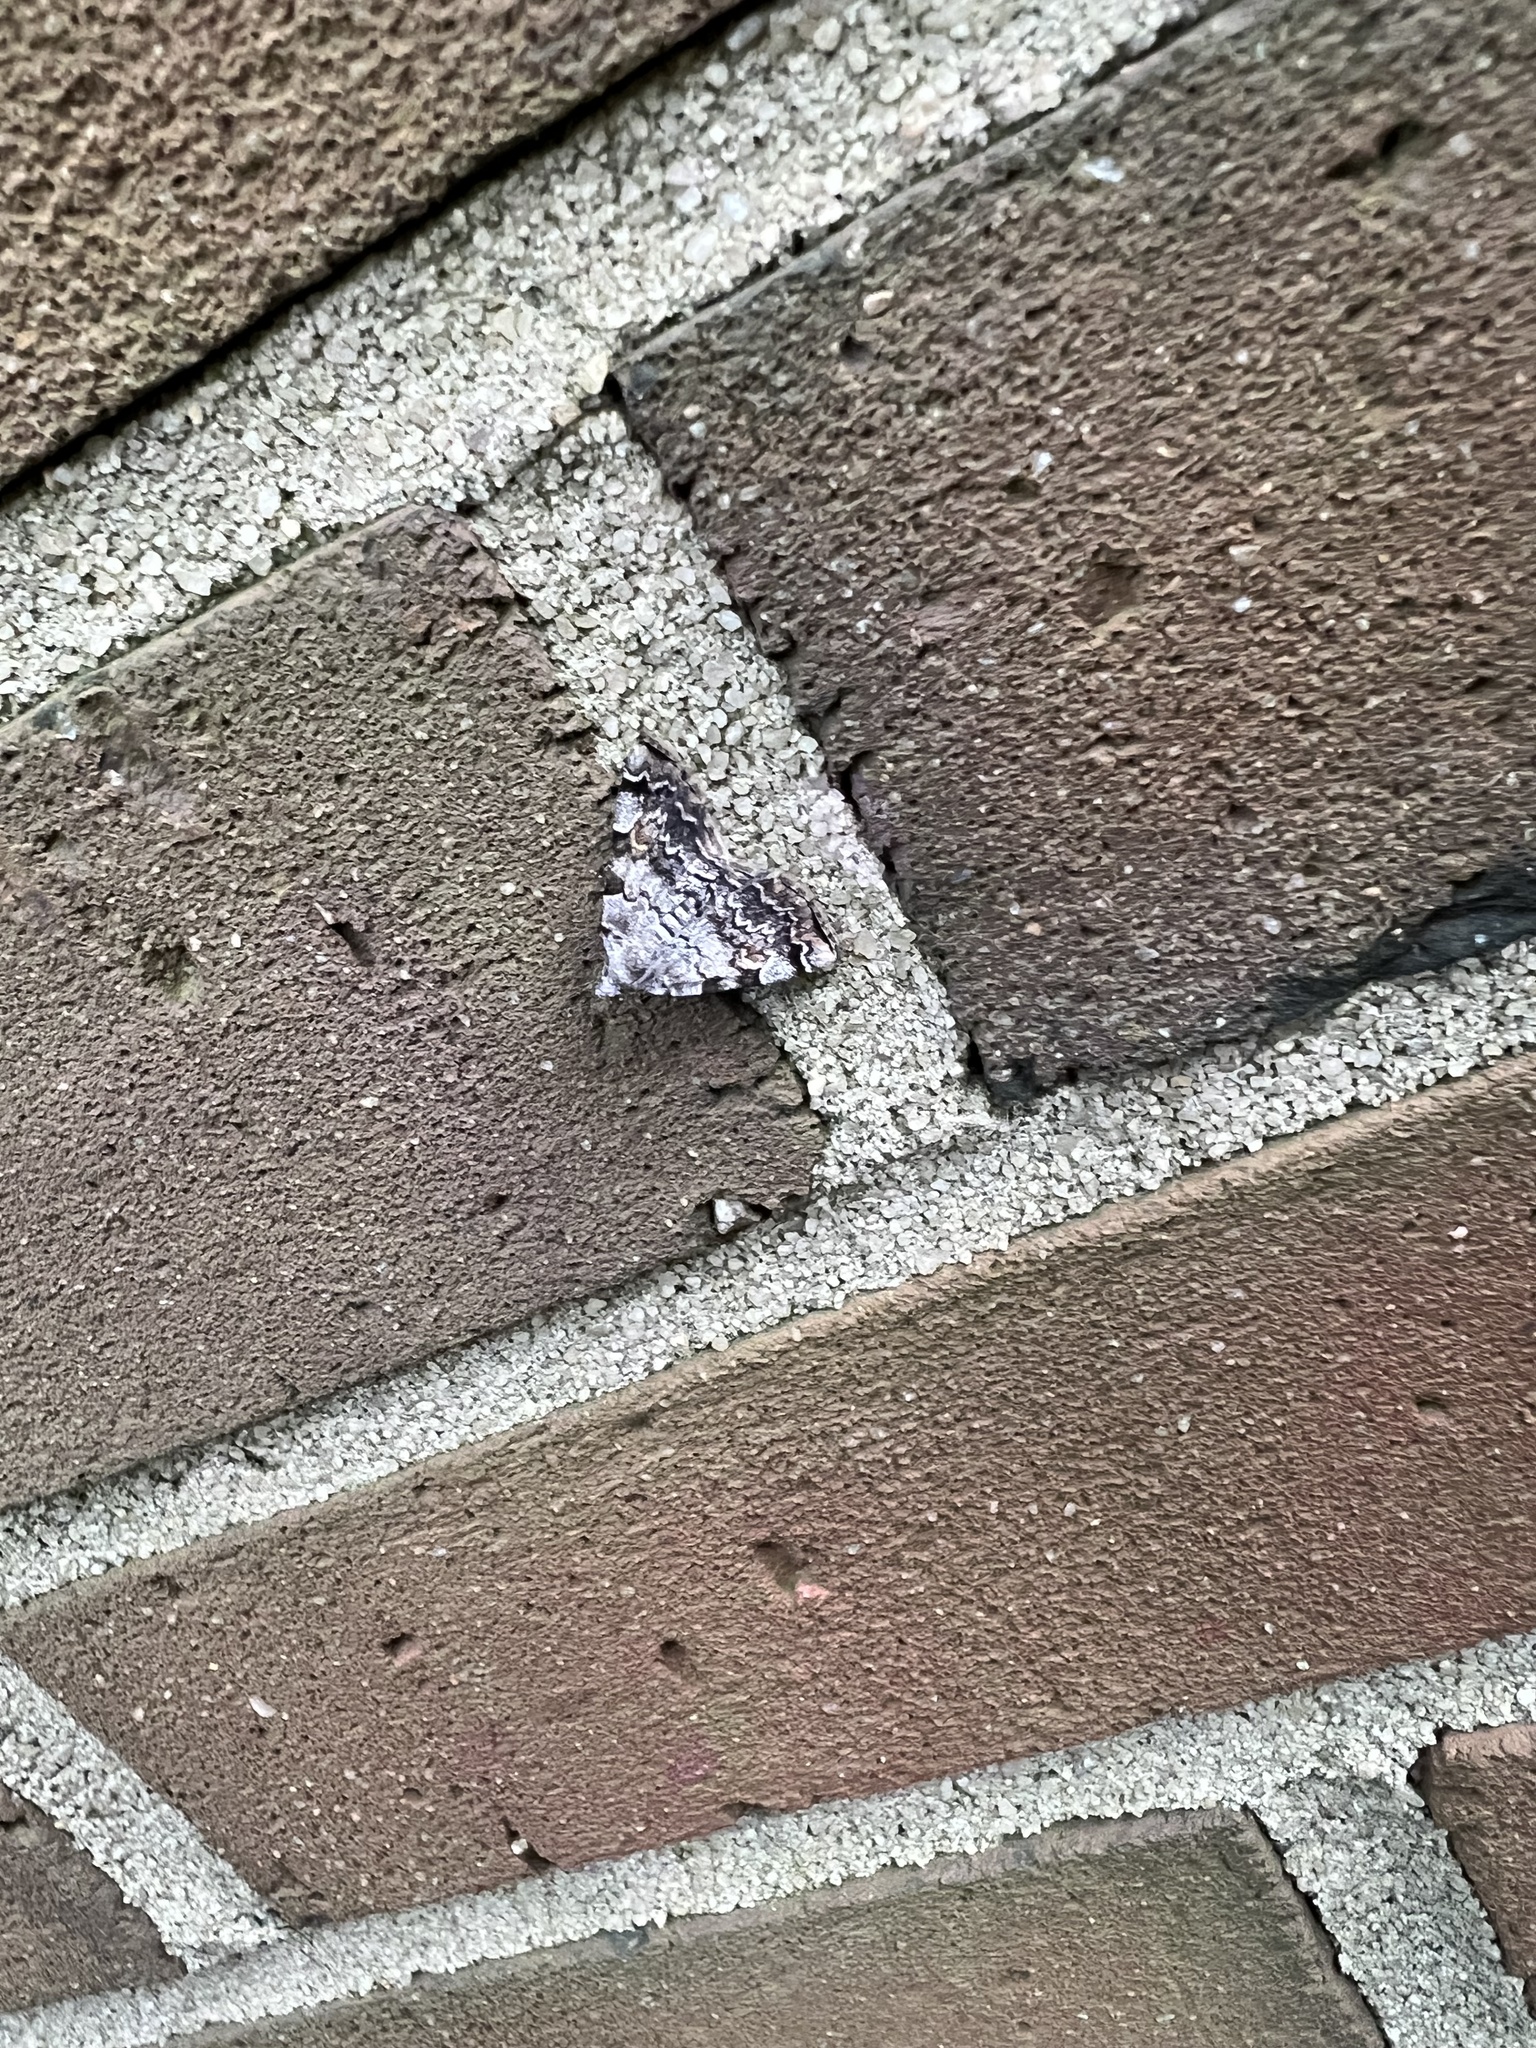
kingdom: Animalia
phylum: Arthropoda
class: Insecta
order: Lepidoptera
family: Erebidae
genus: Idia
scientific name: Idia americalis
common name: American idia moth
